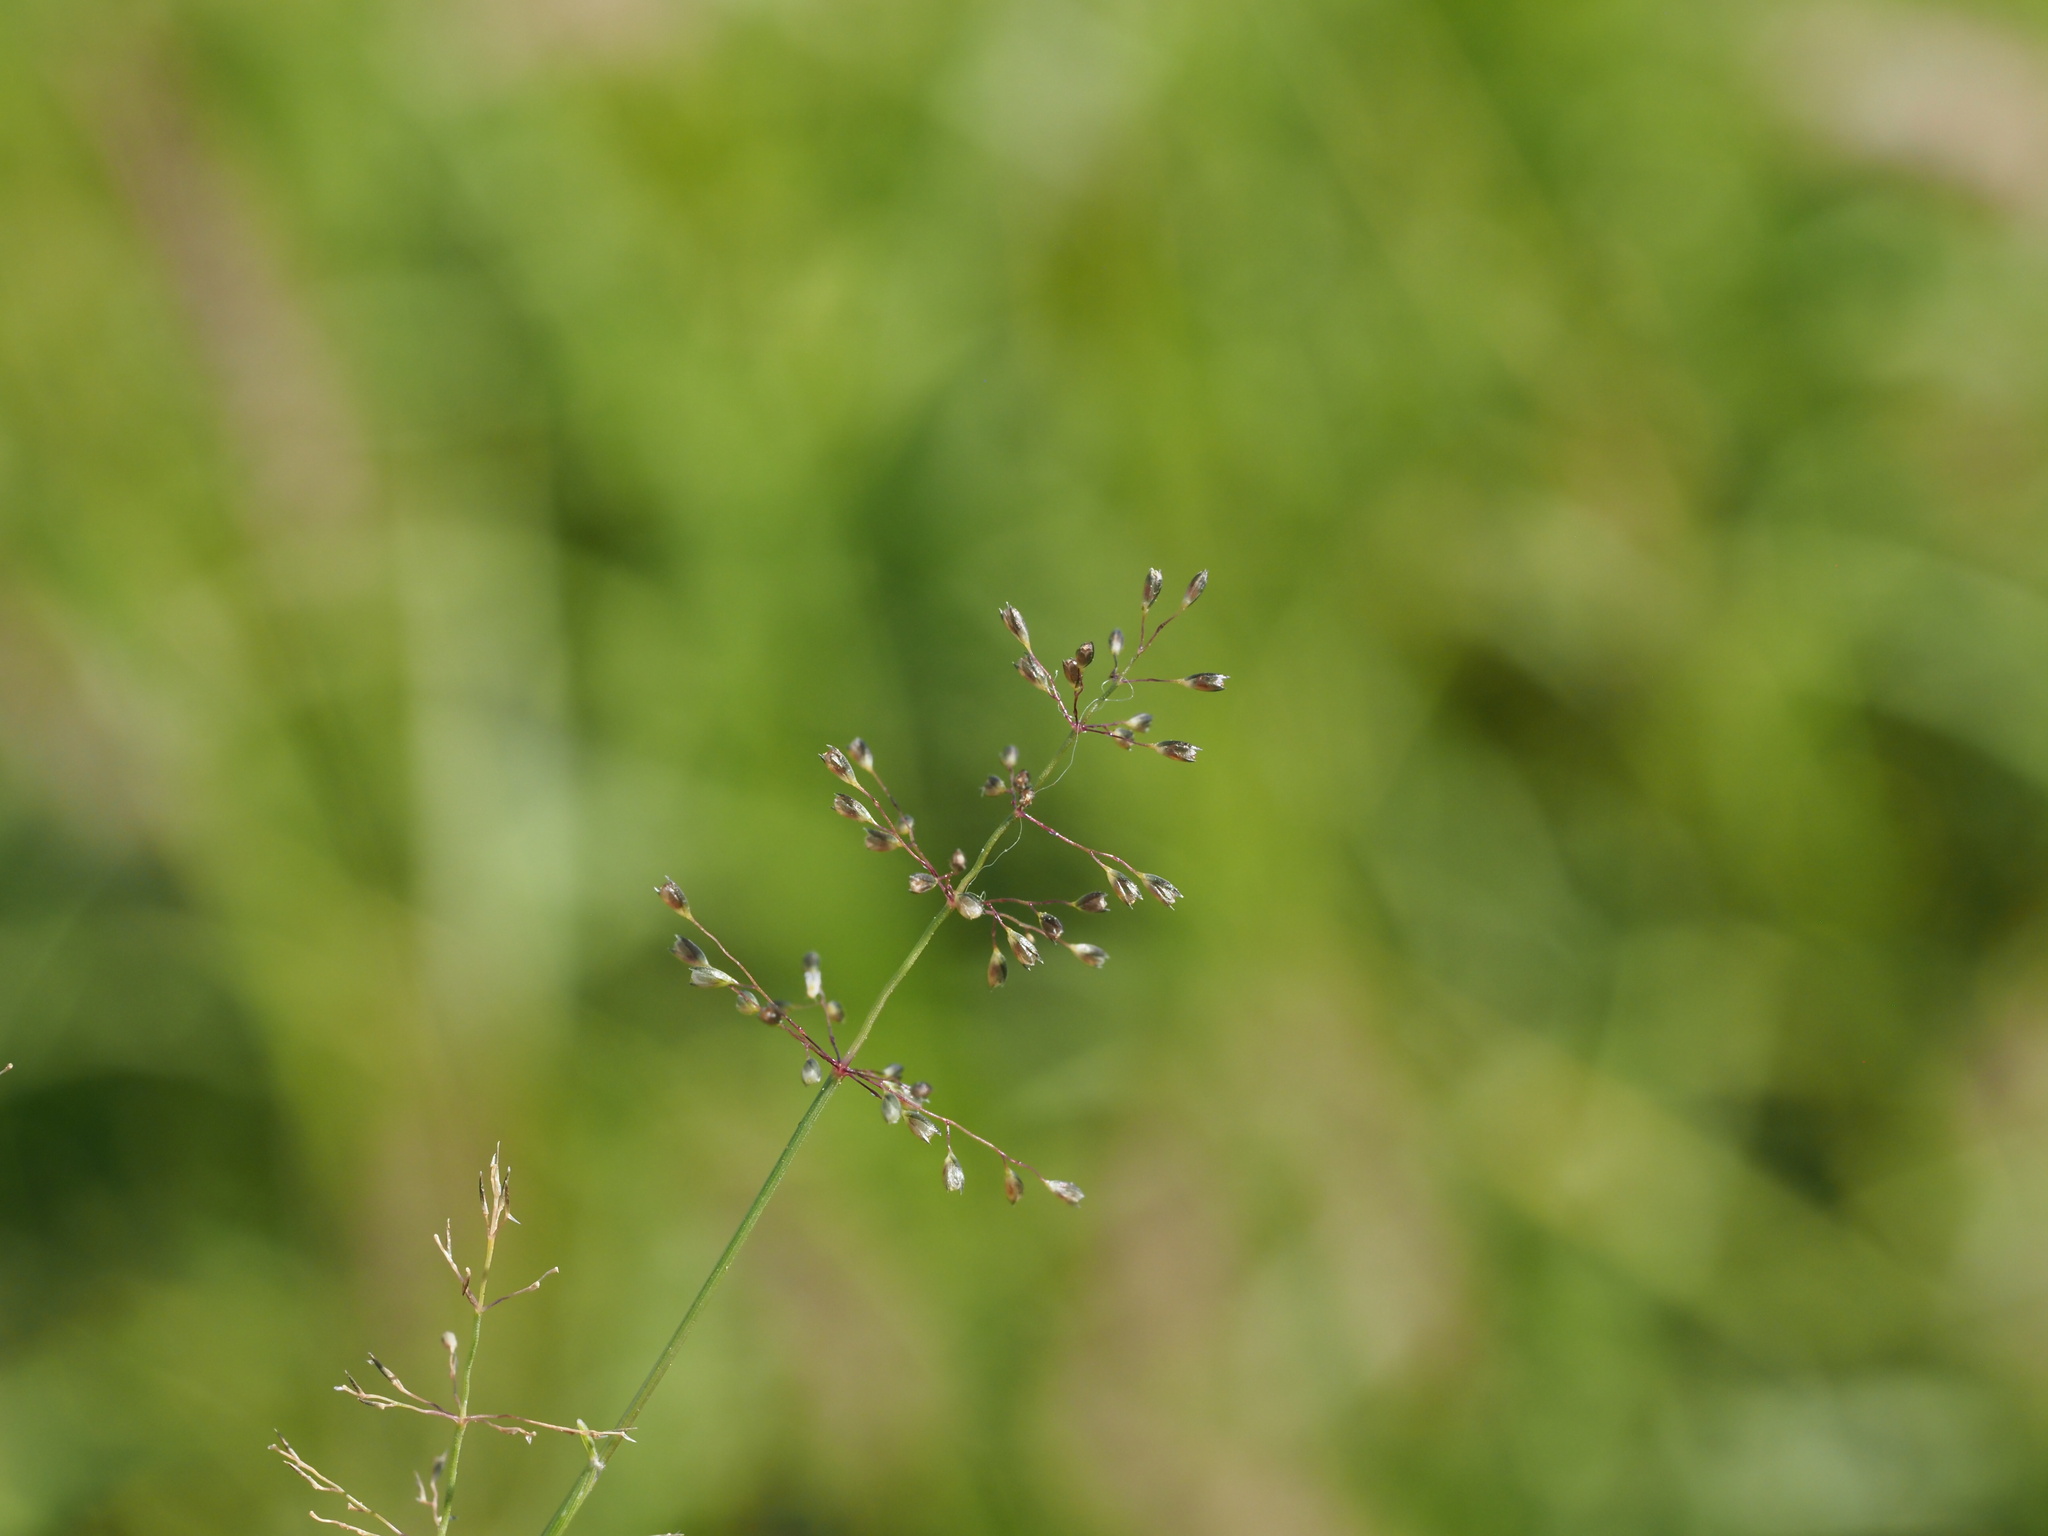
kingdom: Plantae
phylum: Tracheophyta
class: Liliopsida
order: Poales
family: Poaceae
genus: Sporobolus
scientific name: Sporobolus coromandelianus
